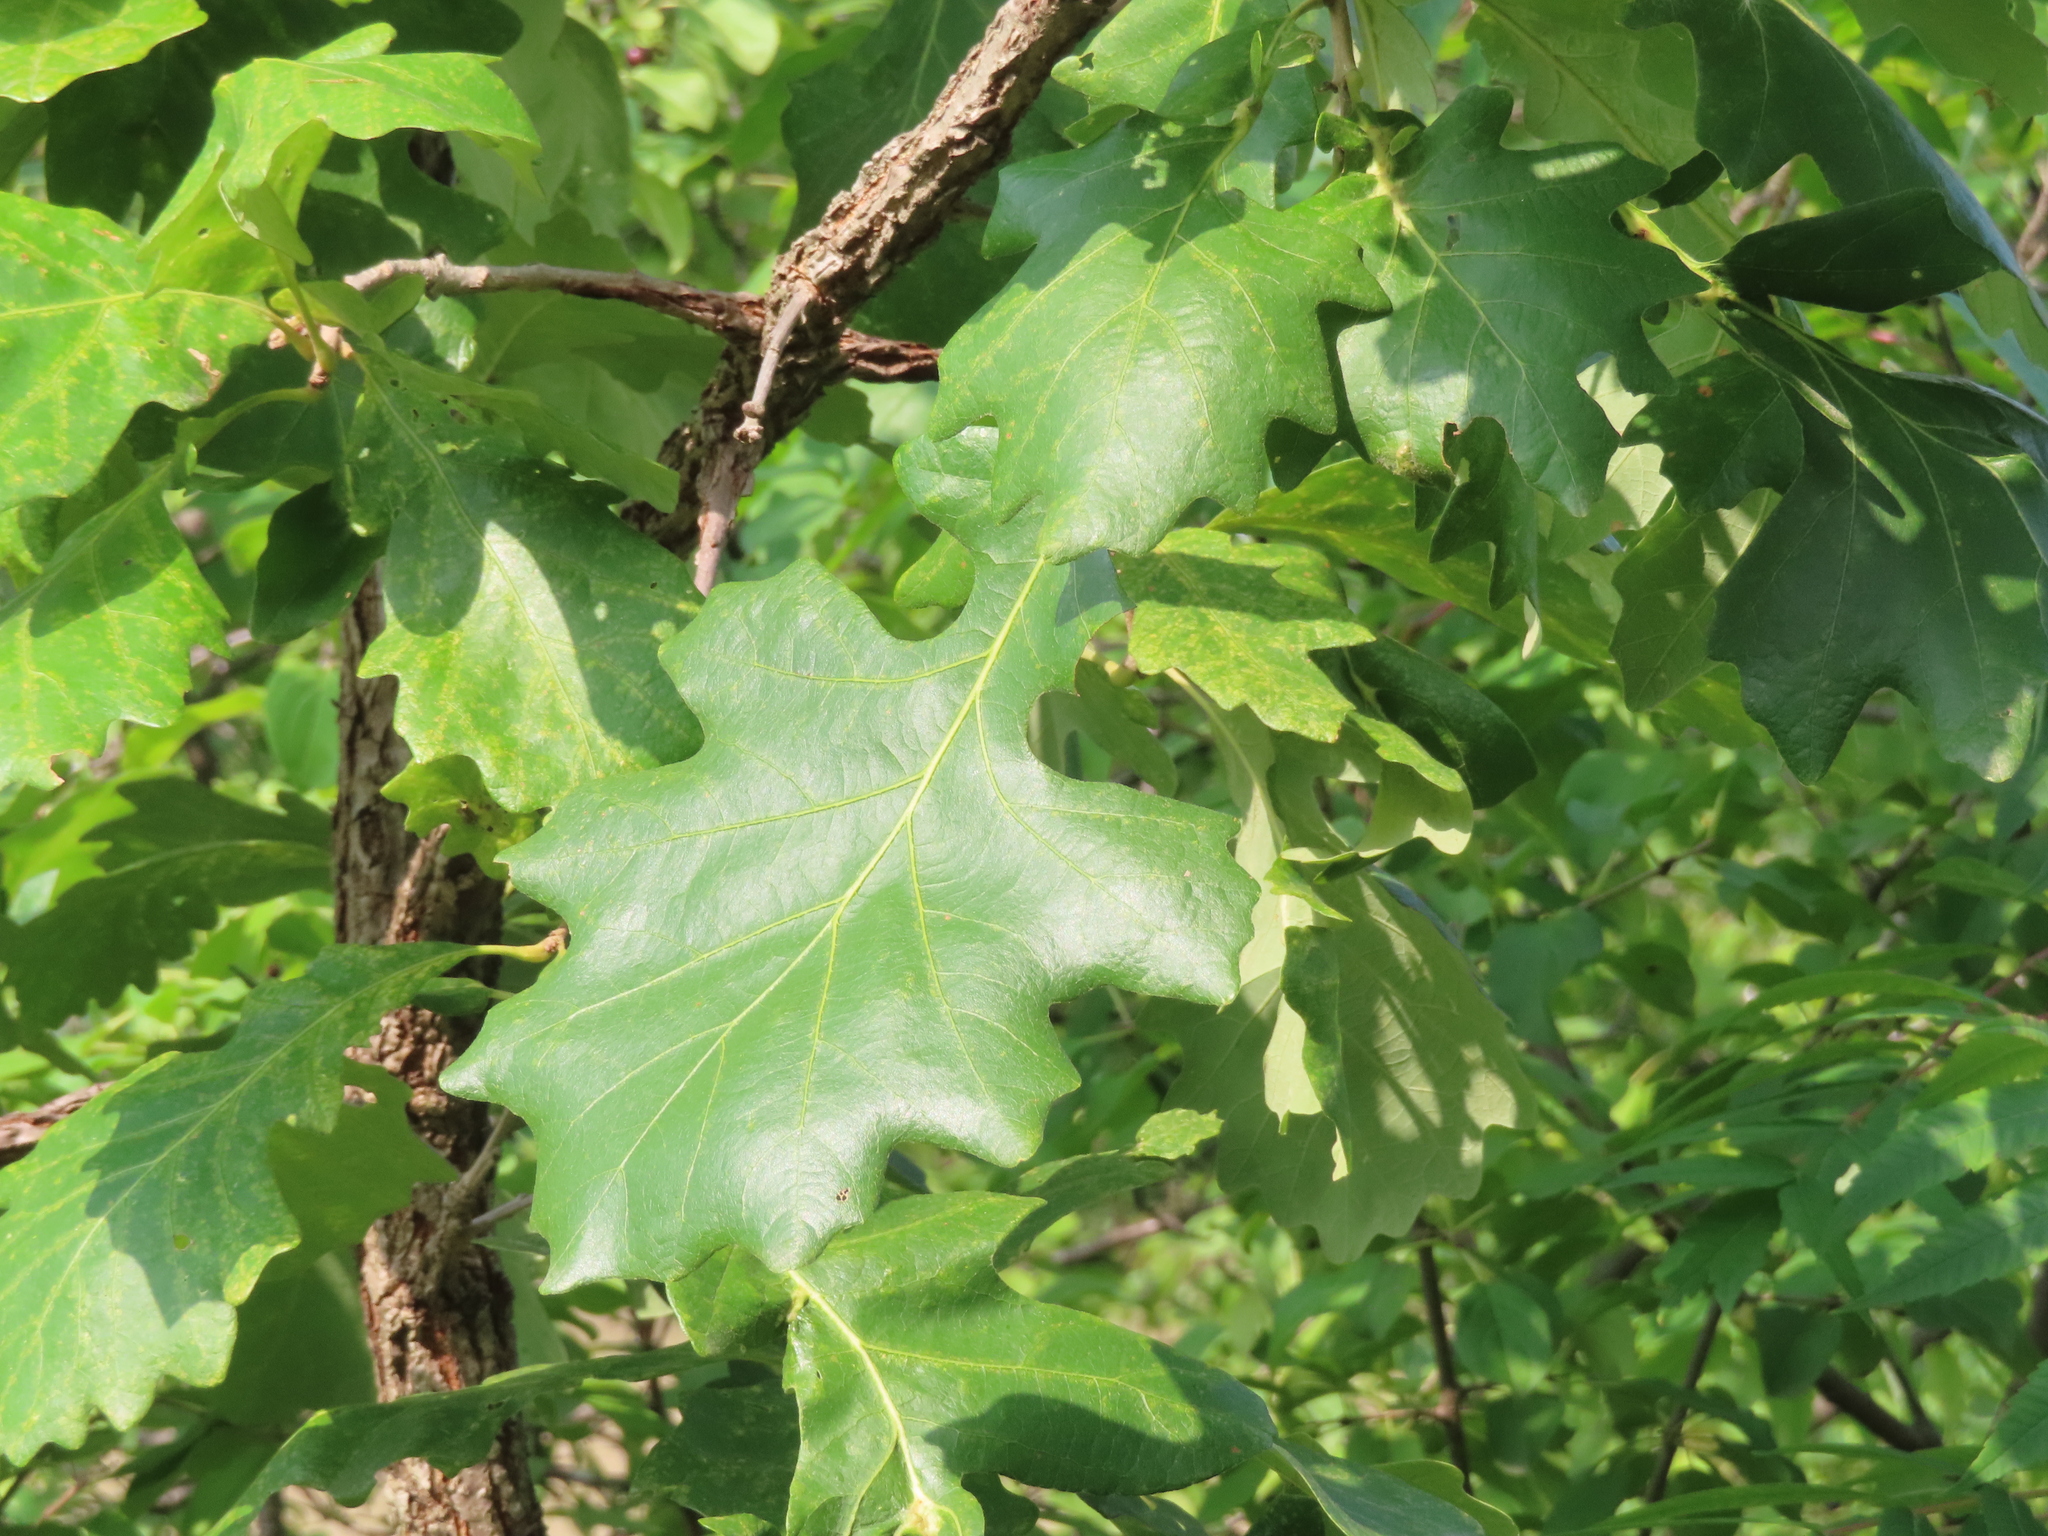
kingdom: Plantae
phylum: Tracheophyta
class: Magnoliopsida
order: Fagales
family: Fagaceae
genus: Quercus
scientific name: Quercus macrocarpa
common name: Bur oak
